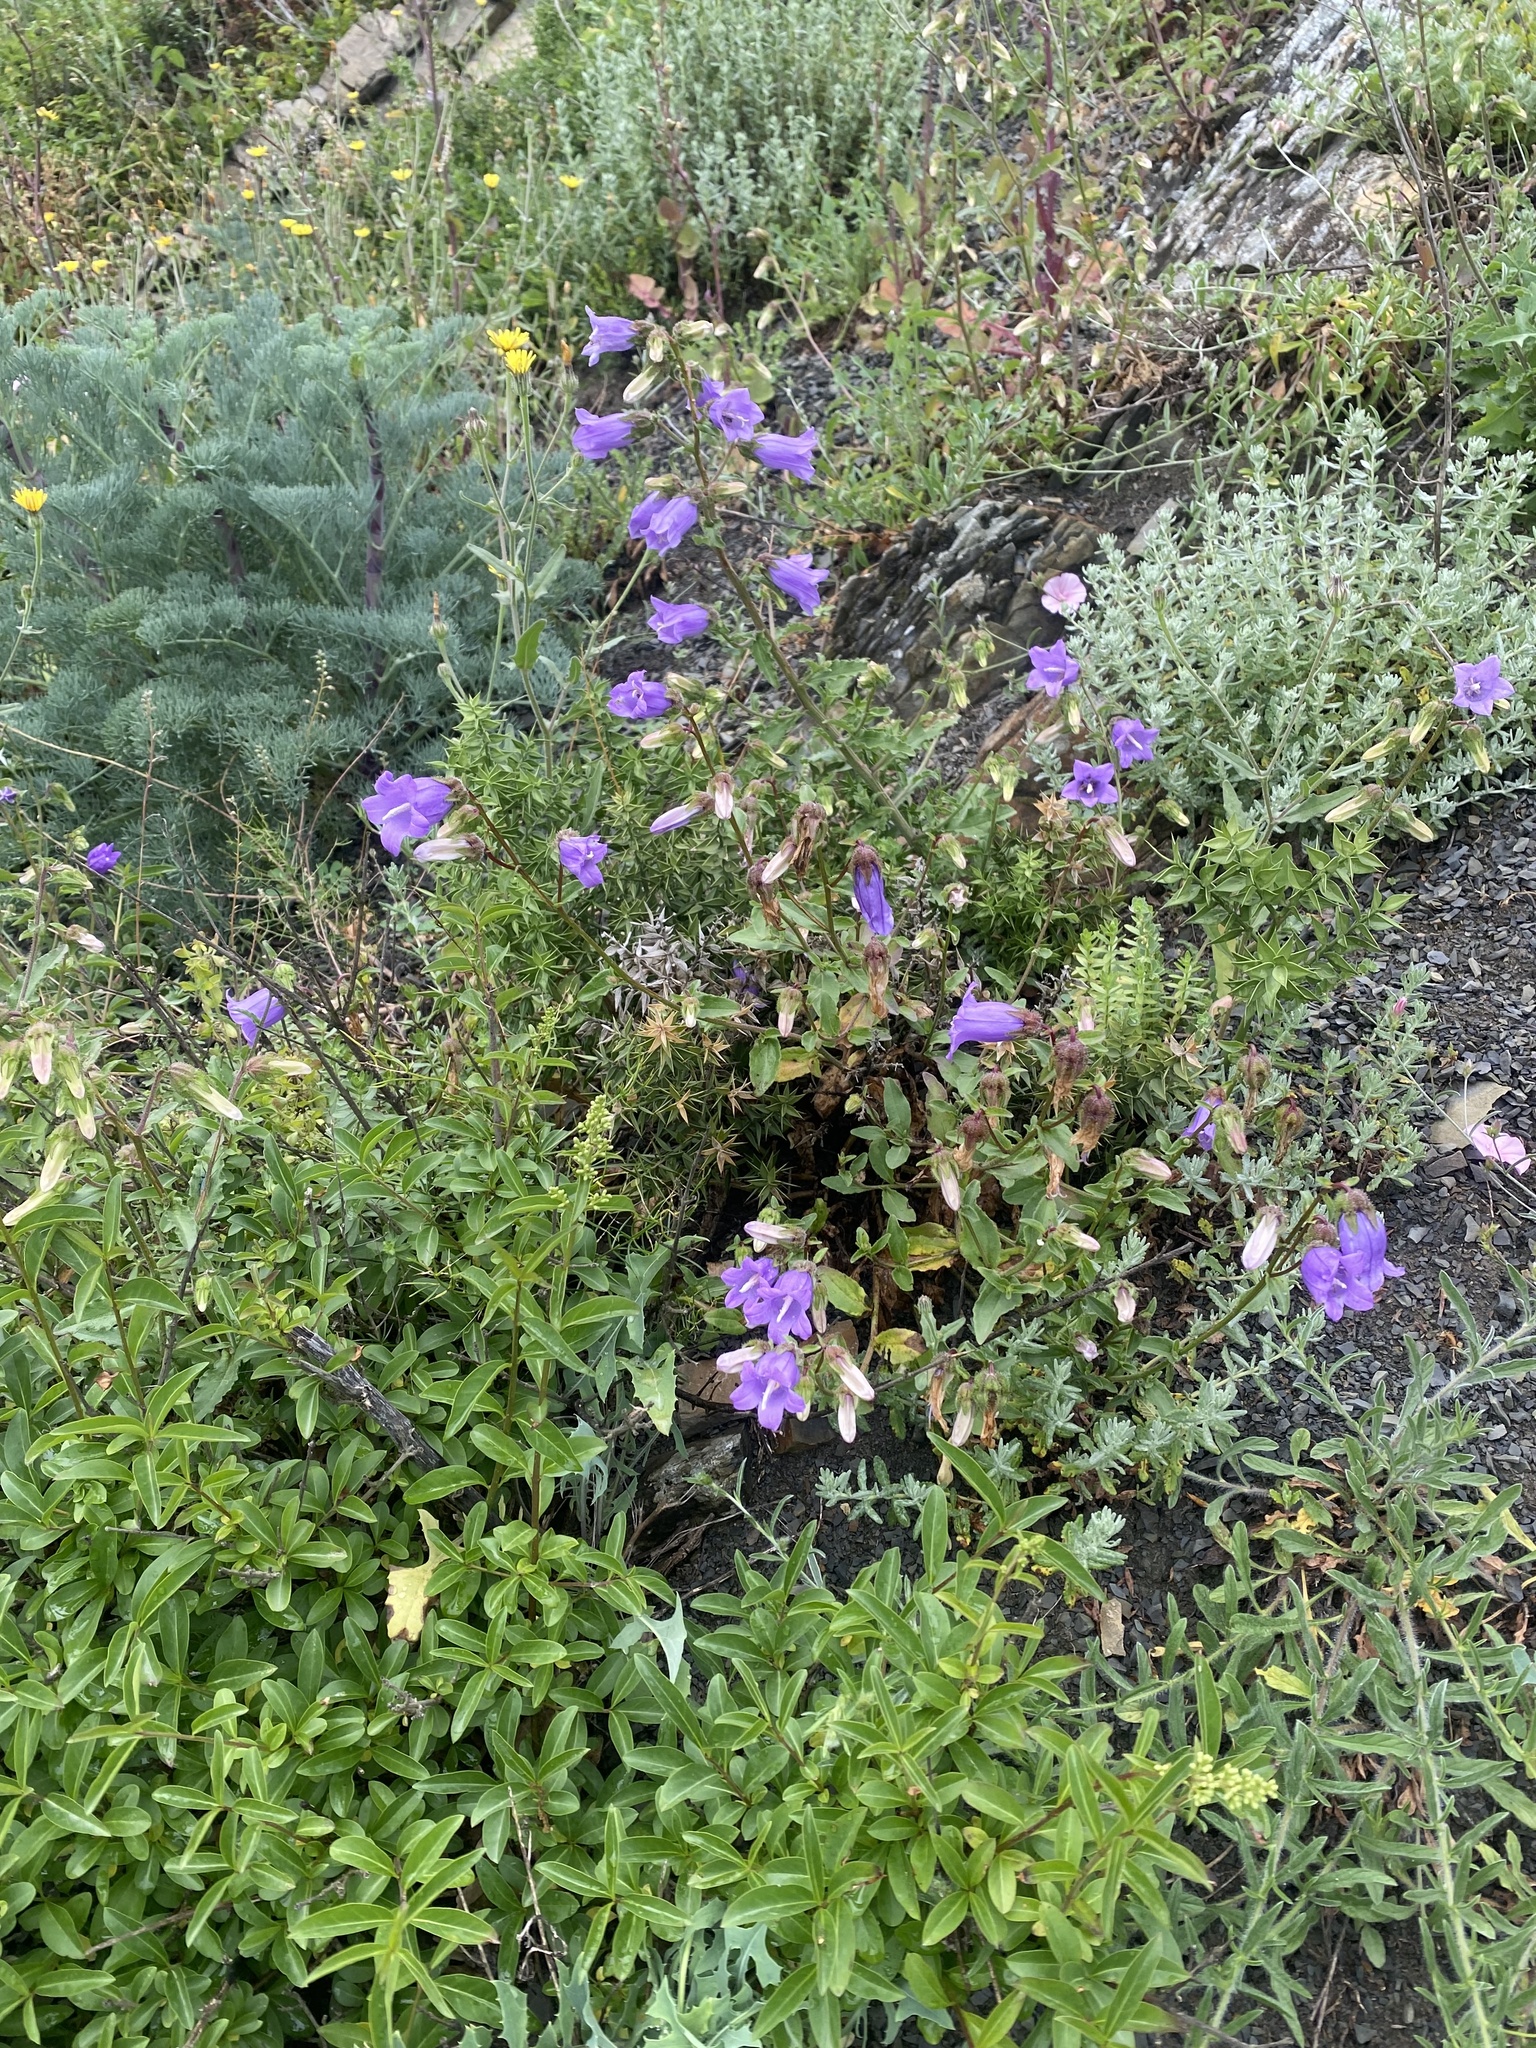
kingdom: Plantae
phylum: Tracheophyta
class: Magnoliopsida
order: Asterales
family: Campanulaceae
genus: Campanula
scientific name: Campanula komarovii
